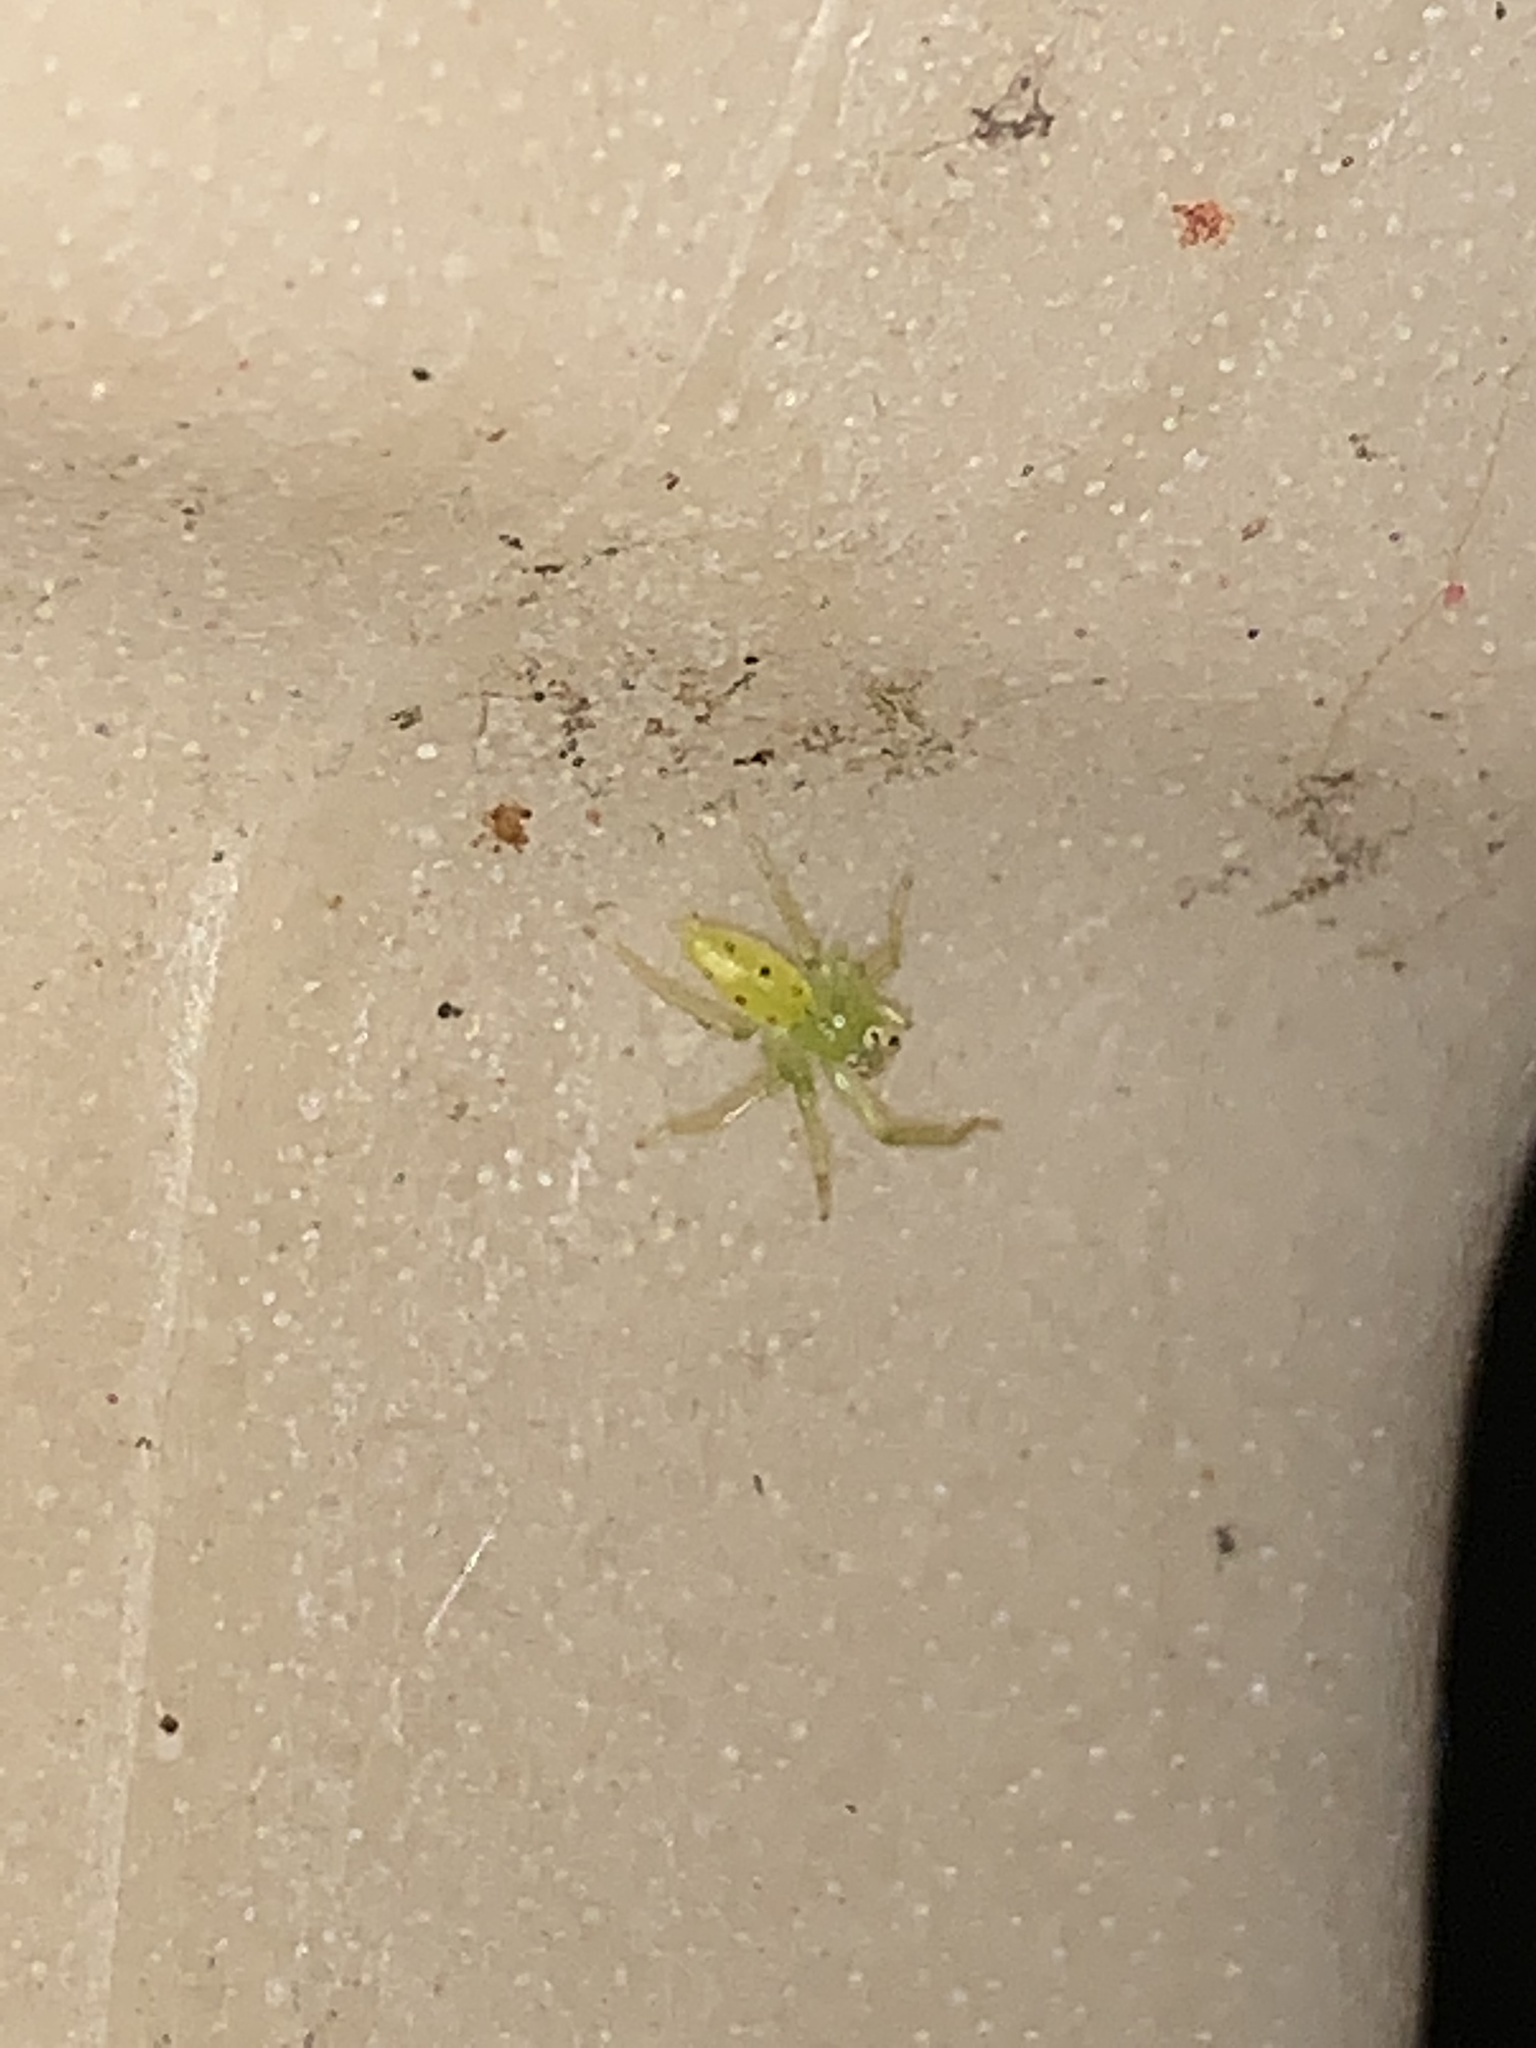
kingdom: Animalia
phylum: Arthropoda
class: Arachnida
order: Araneae
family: Salticidae
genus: Lyssomanes
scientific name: Lyssomanes viridis
